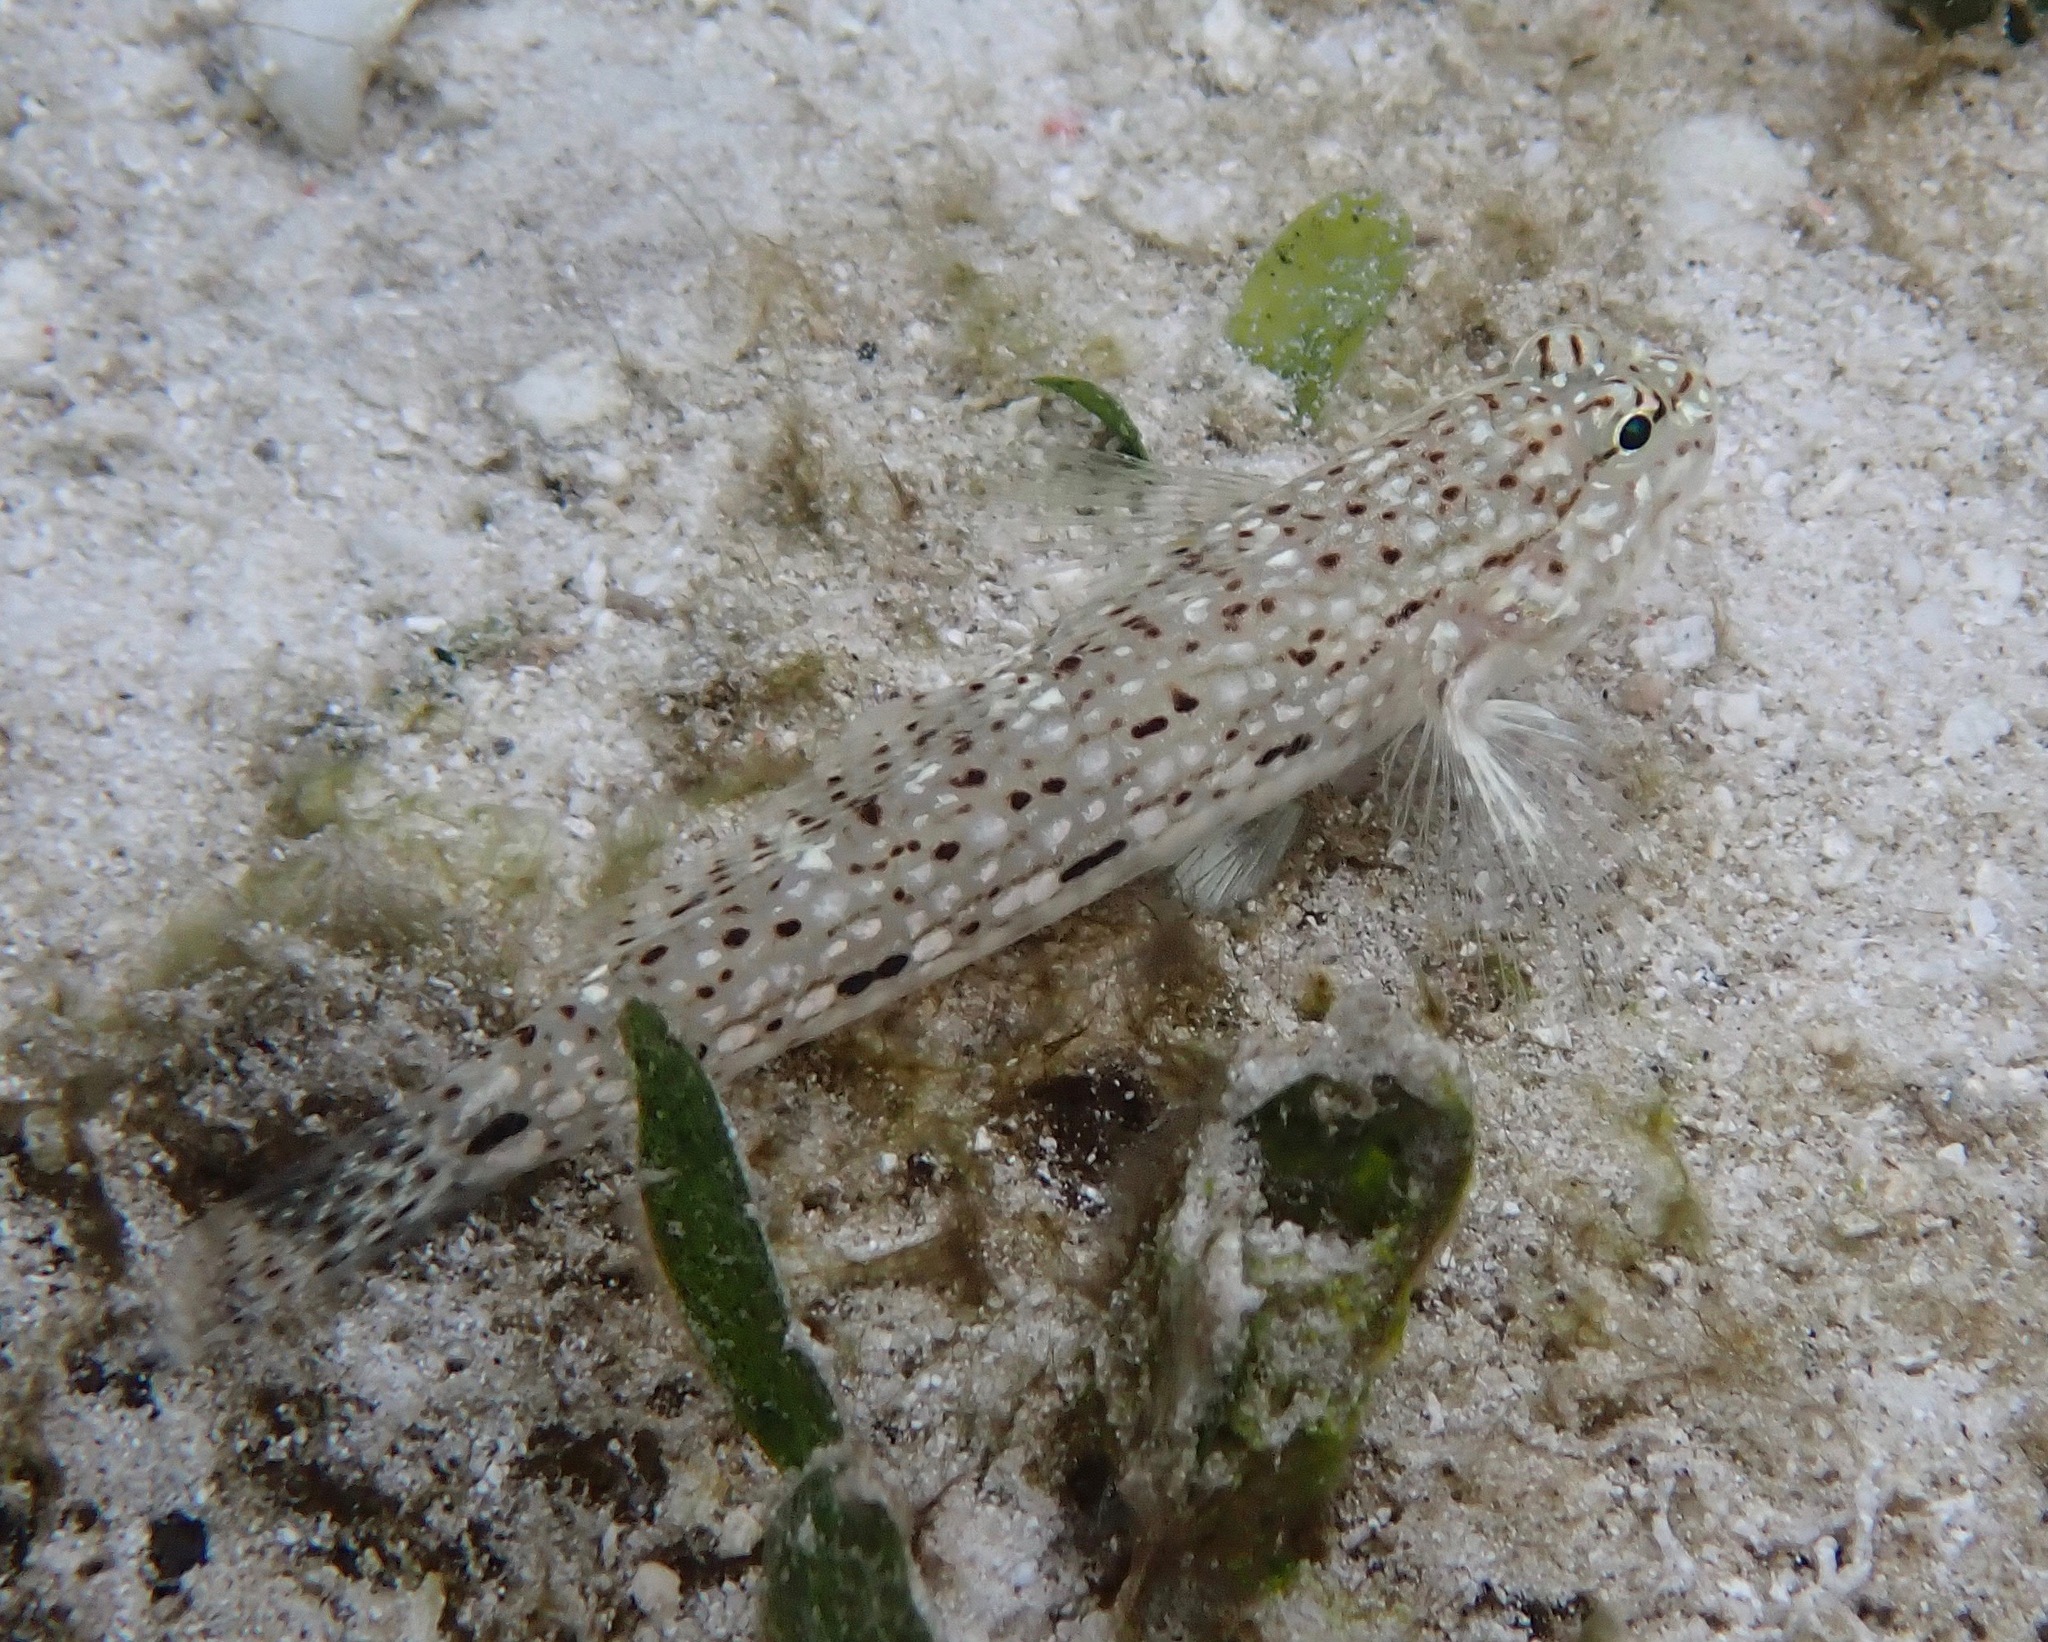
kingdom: Animalia
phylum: Chordata
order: Perciformes
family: Gobiidae
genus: Istigobius
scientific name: Istigobius decoratus
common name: Decorated goby
